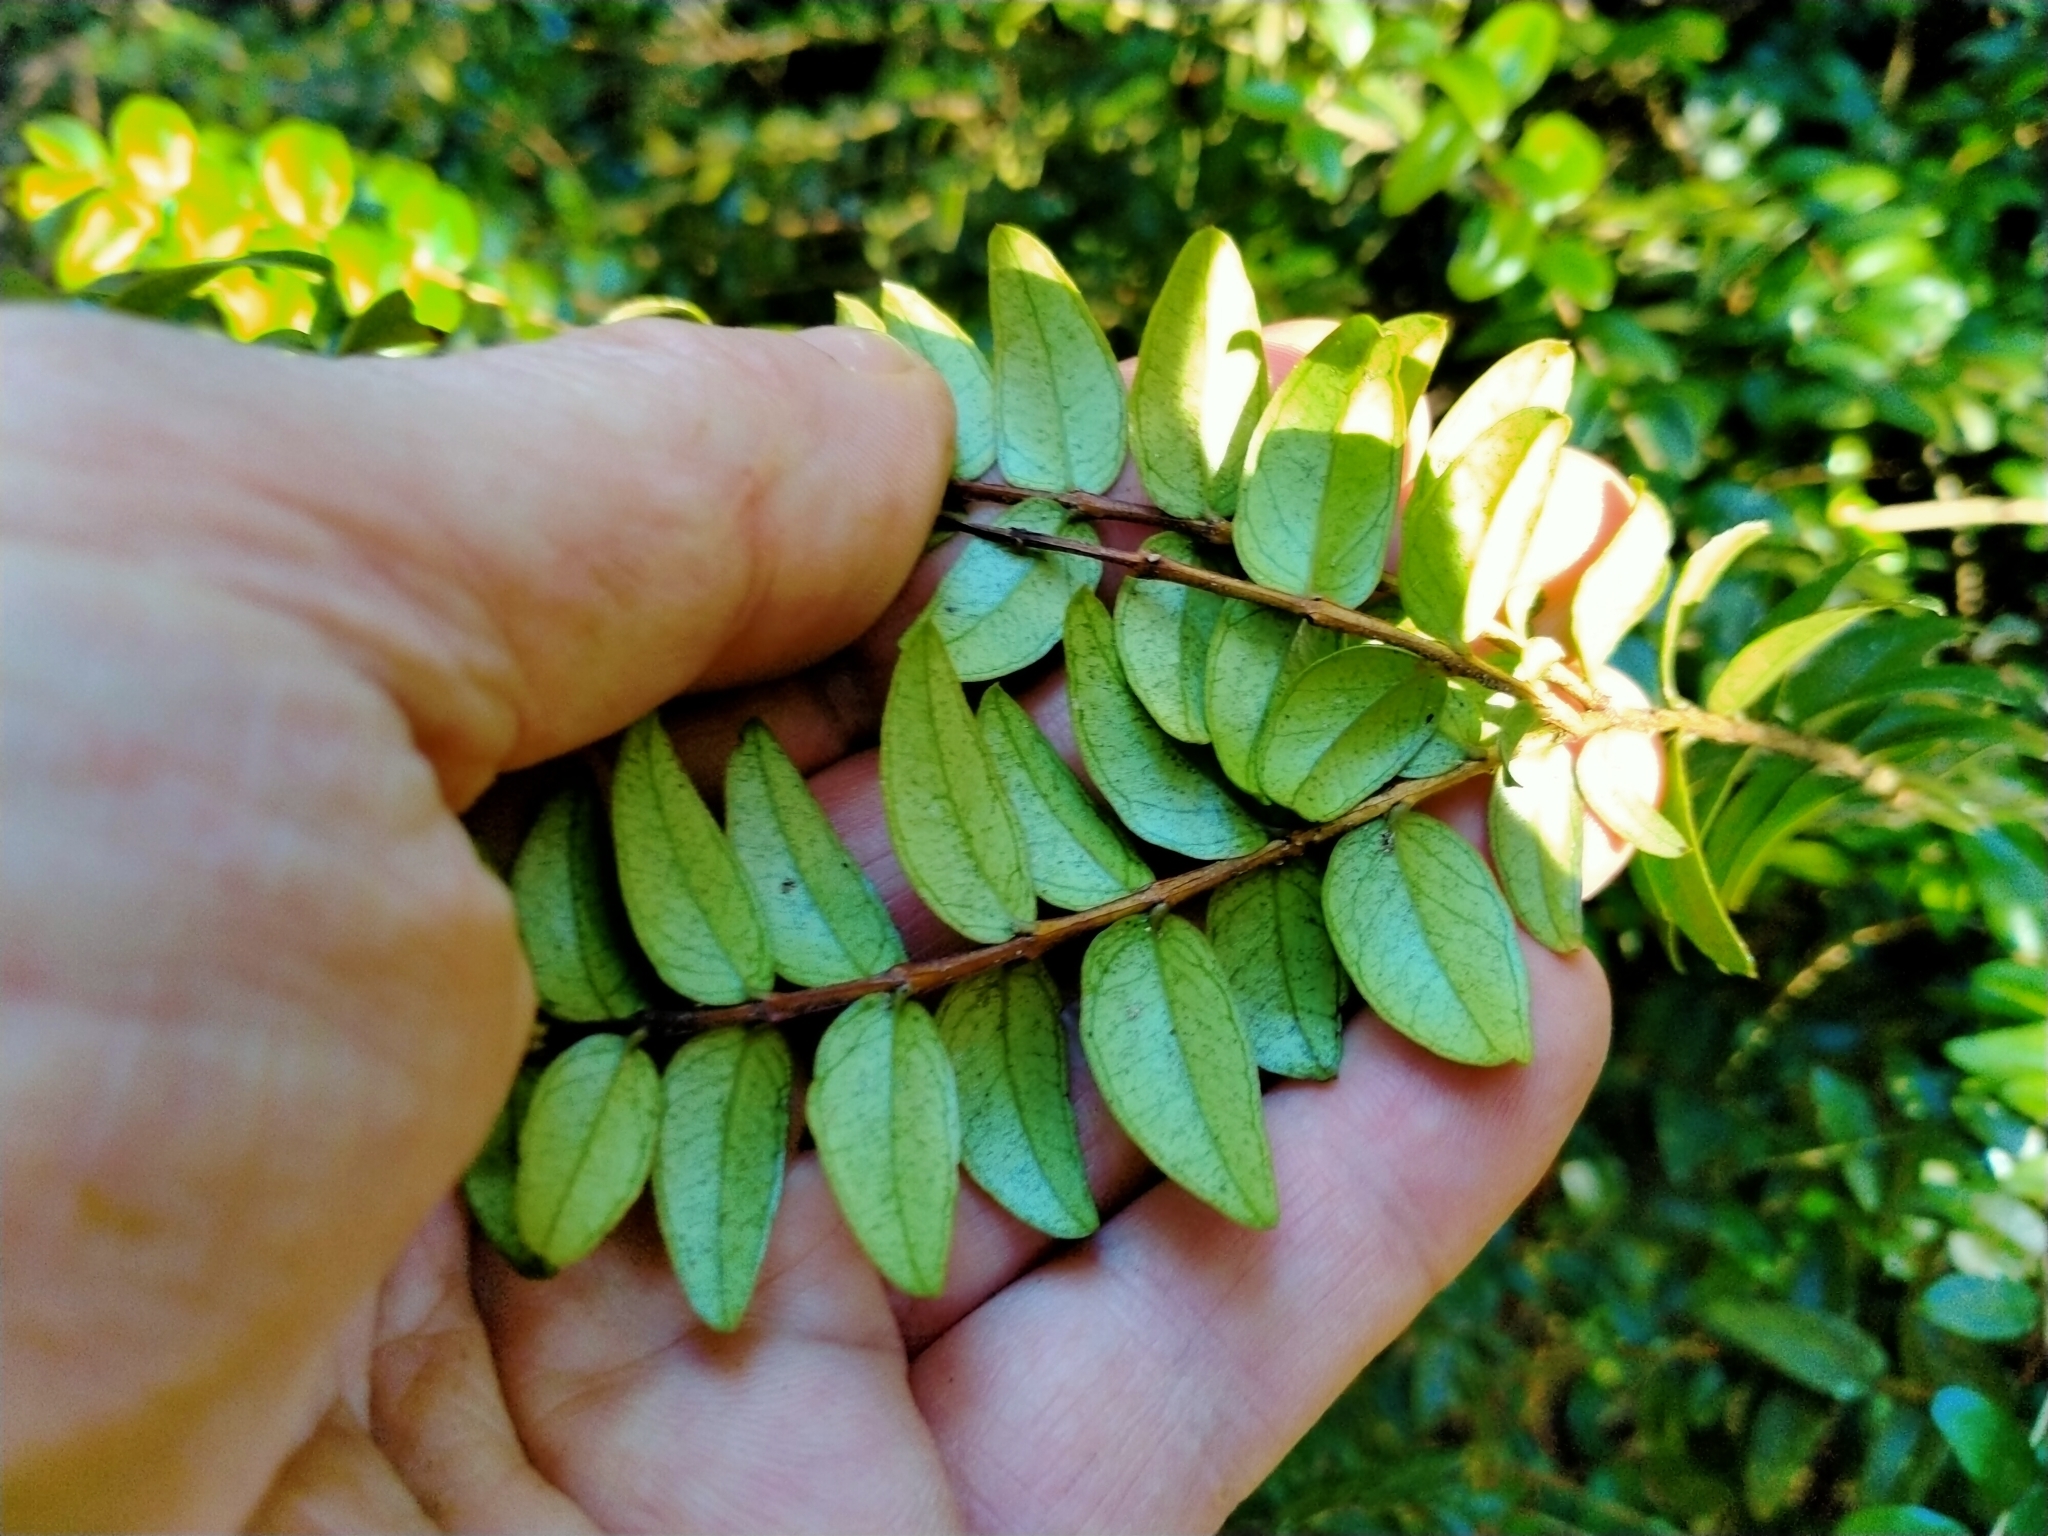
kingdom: Plantae
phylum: Tracheophyta
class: Magnoliopsida
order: Myrtales
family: Myrtaceae
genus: Metrosideros
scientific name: Metrosideros diffusa
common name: Small ratavine
